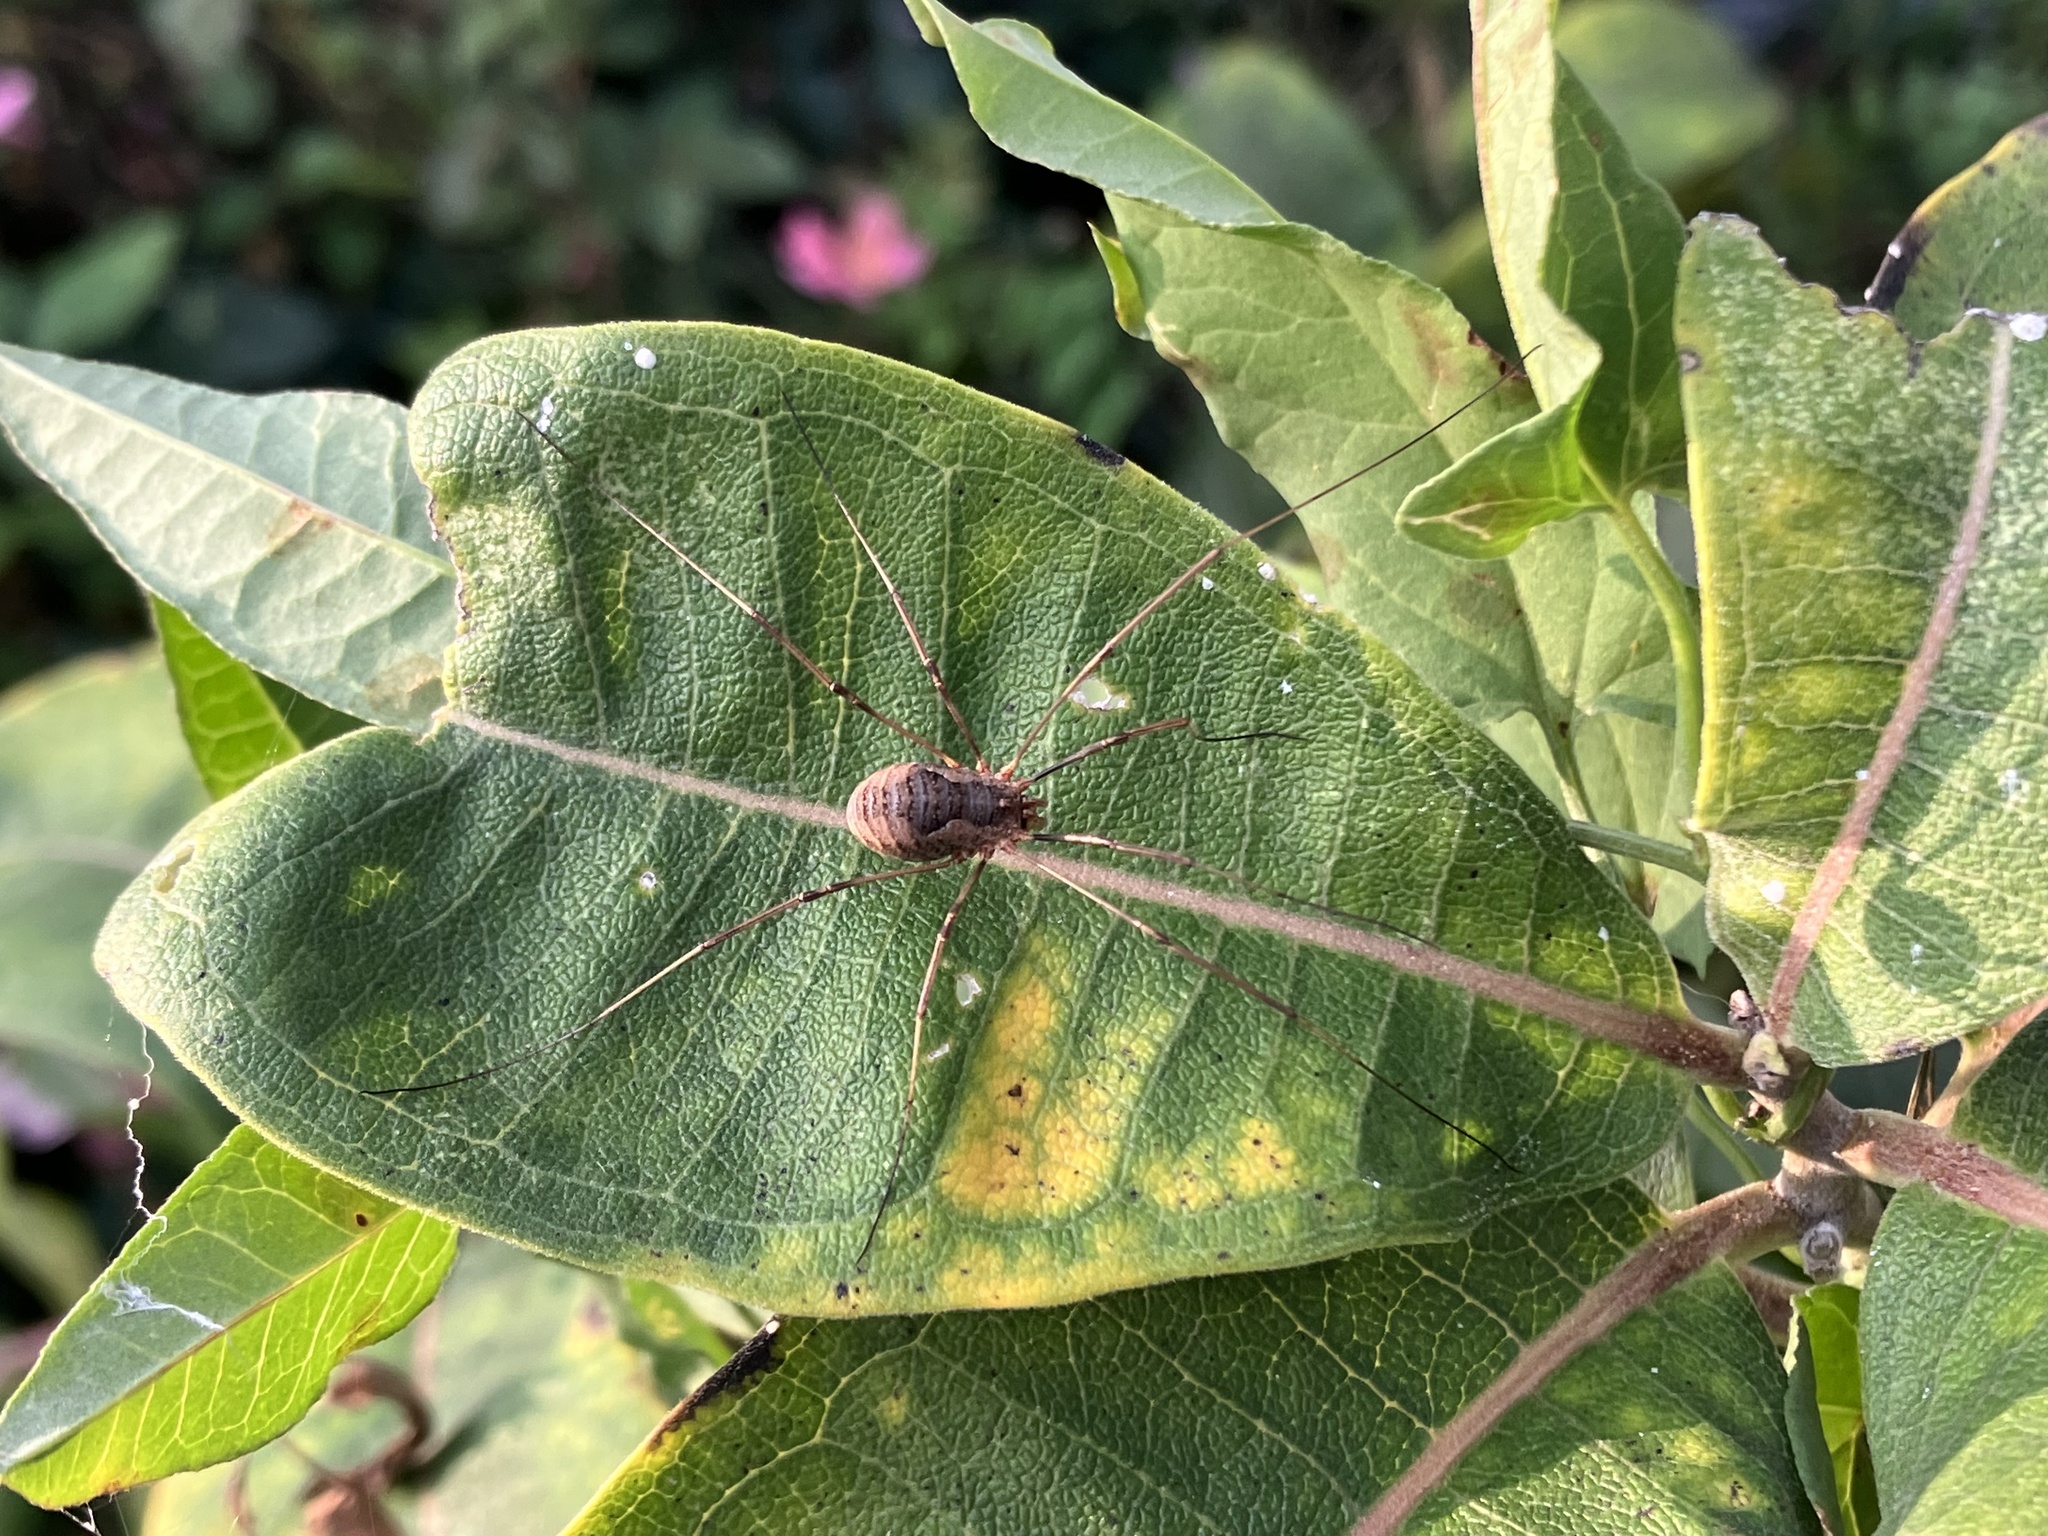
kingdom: Animalia
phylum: Arthropoda
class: Arachnida
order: Opiliones
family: Phalangiidae
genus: Phalangium
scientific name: Phalangium opilio
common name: Daddy longleg
